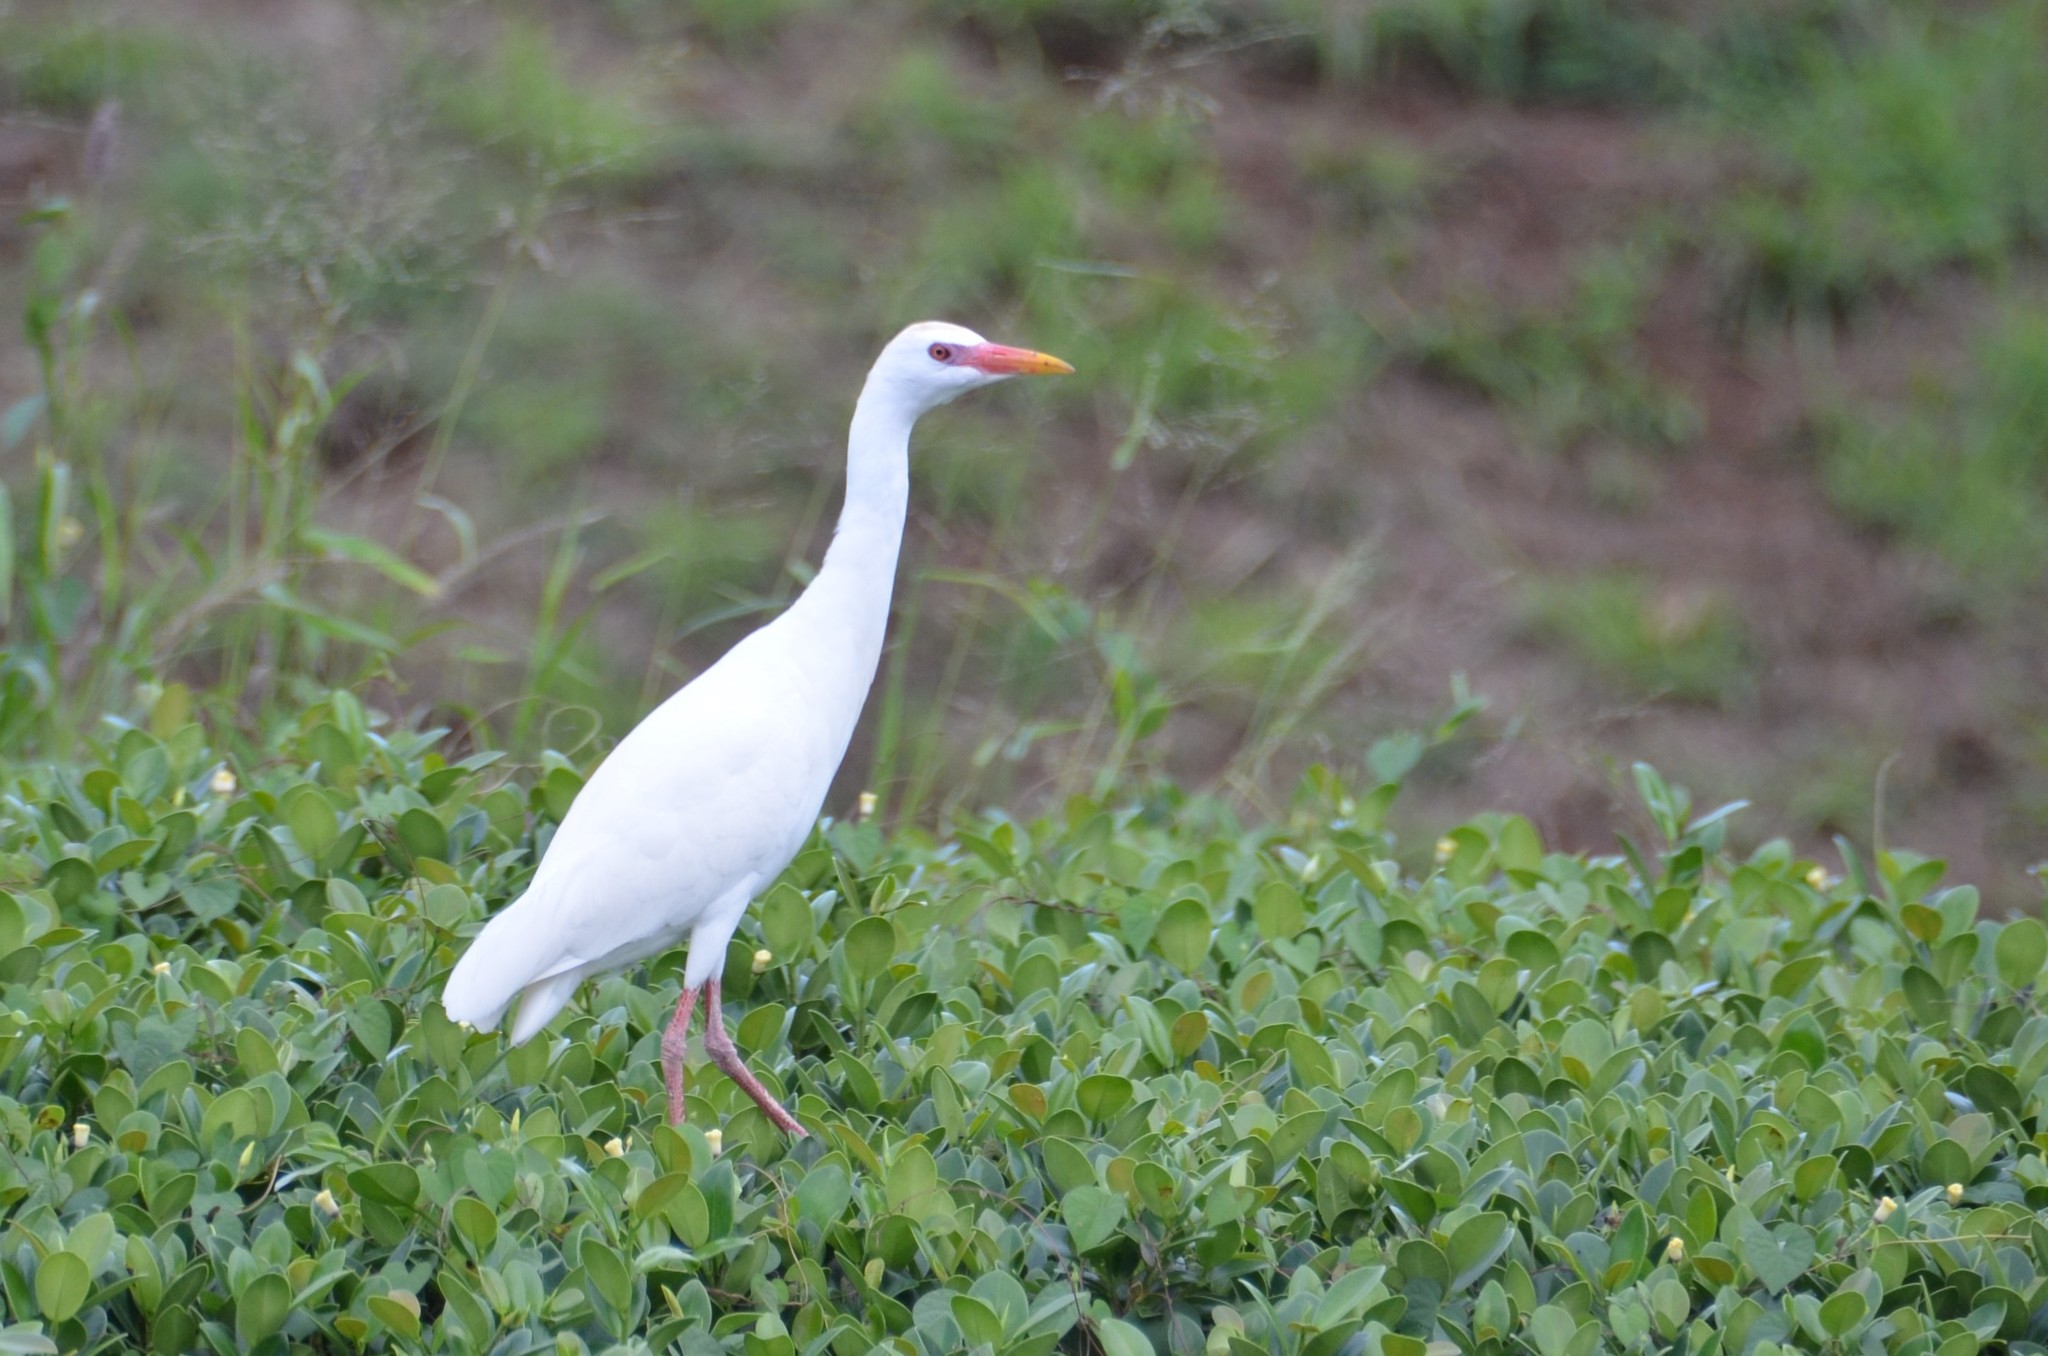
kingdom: Animalia
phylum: Chordata
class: Aves
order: Pelecaniformes
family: Ardeidae
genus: Bubulcus
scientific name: Bubulcus ibis
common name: Cattle egret
